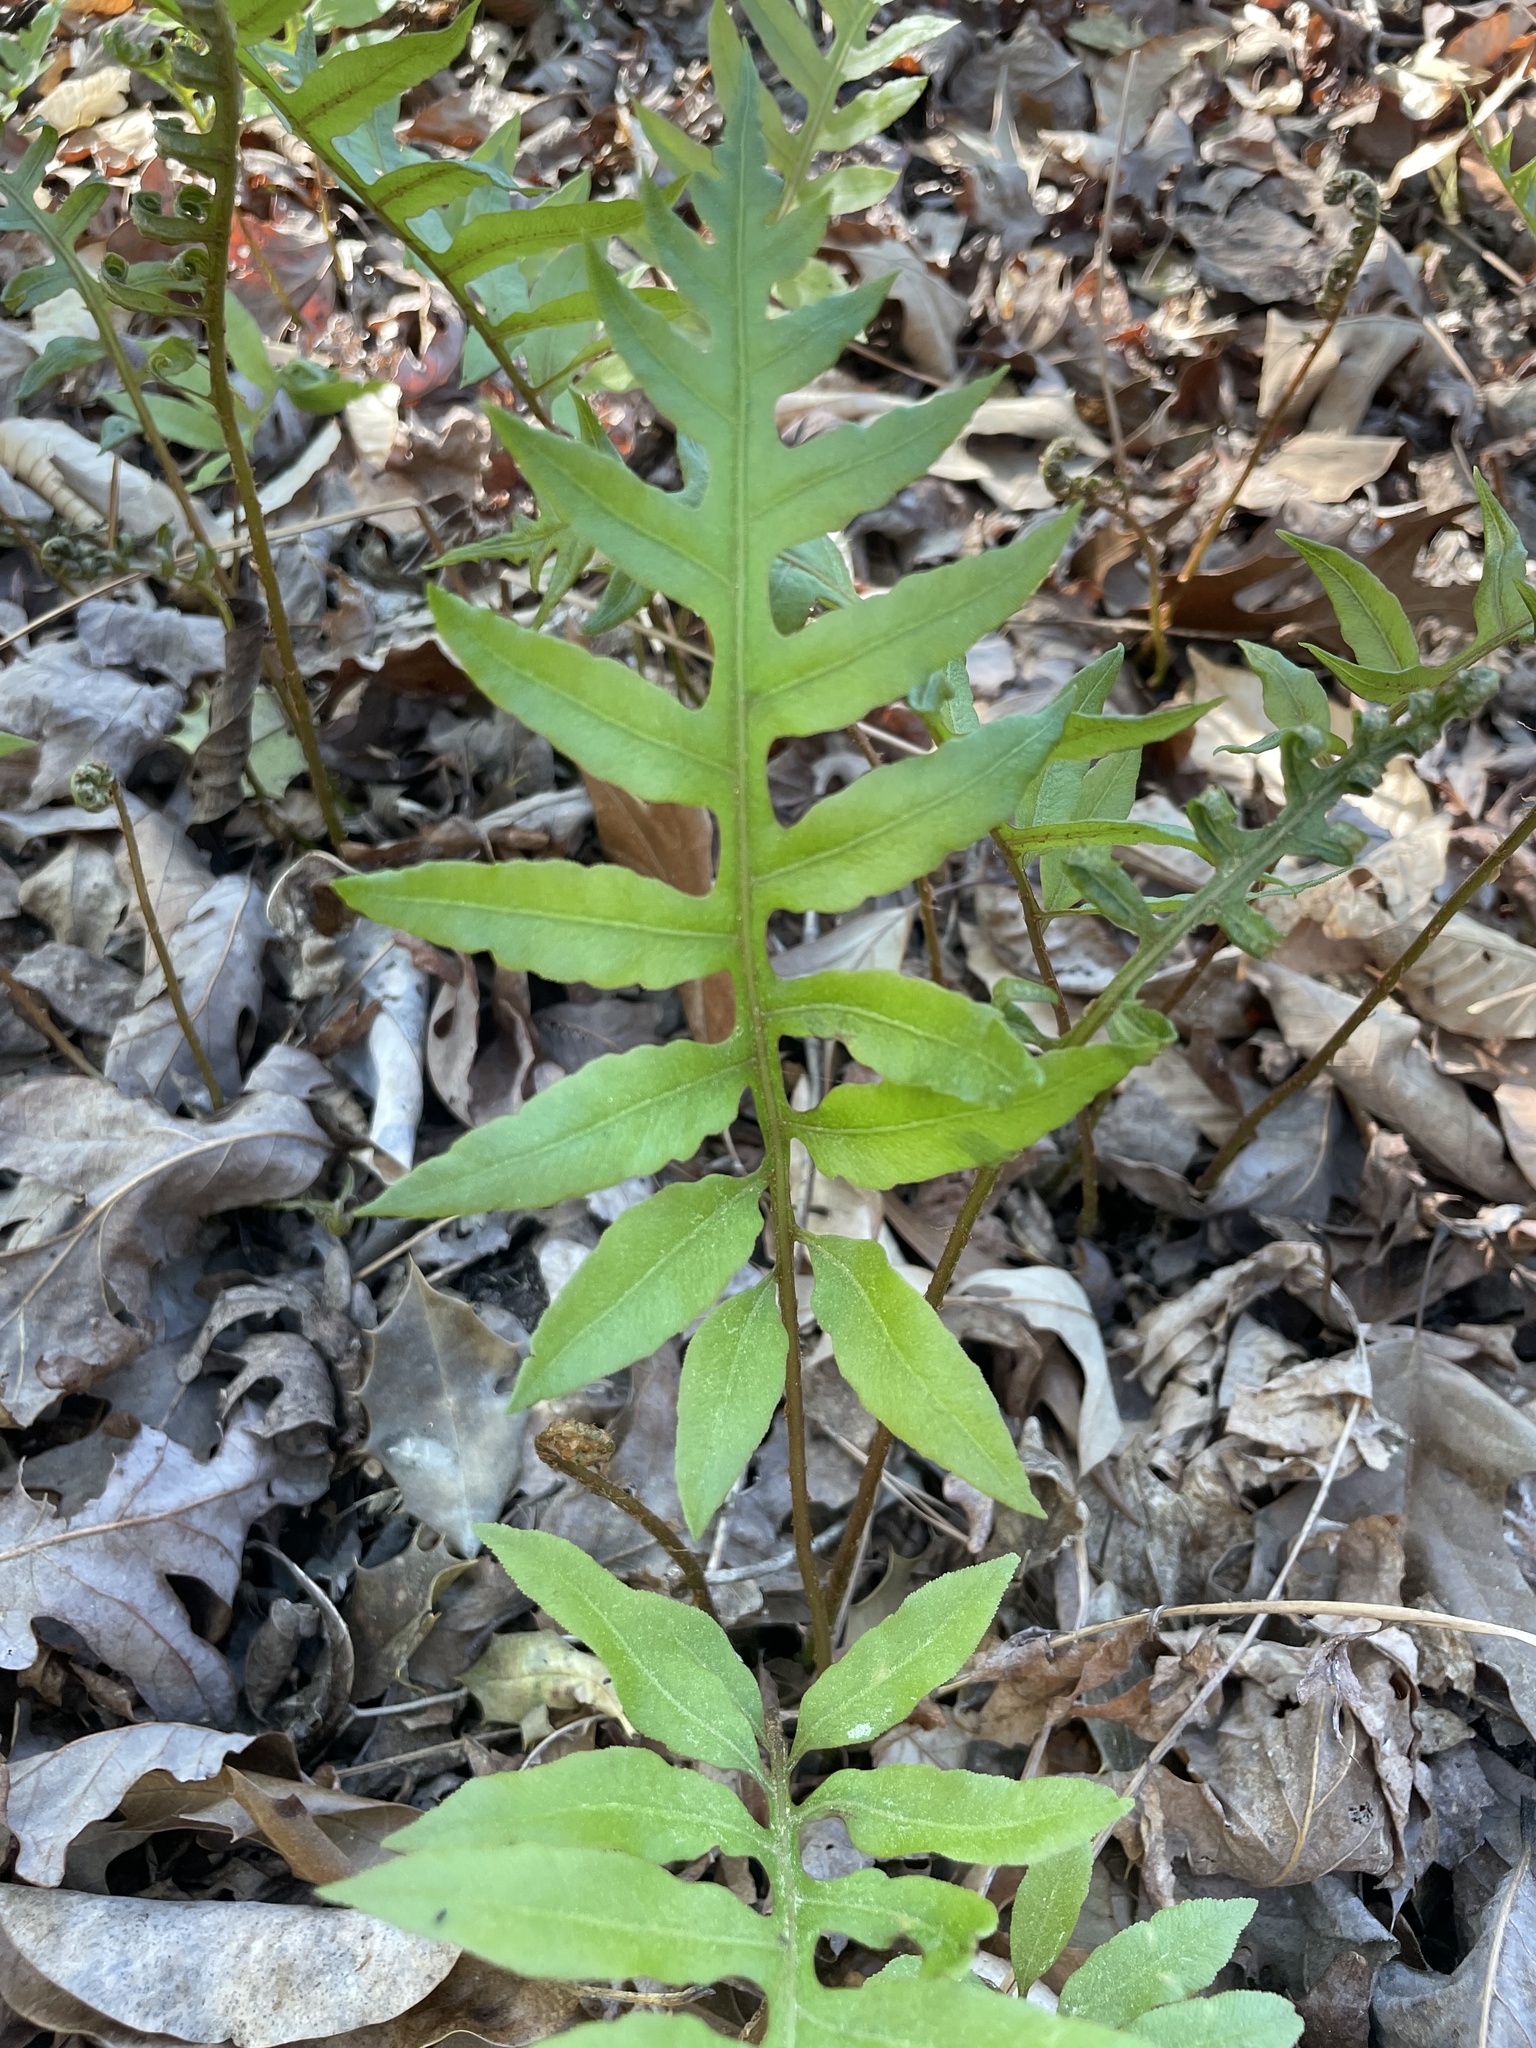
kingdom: Plantae
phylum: Tracheophyta
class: Polypodiopsida
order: Polypodiales
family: Blechnaceae
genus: Lorinseria
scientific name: Lorinseria areolata
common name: Dwarf chain fern
